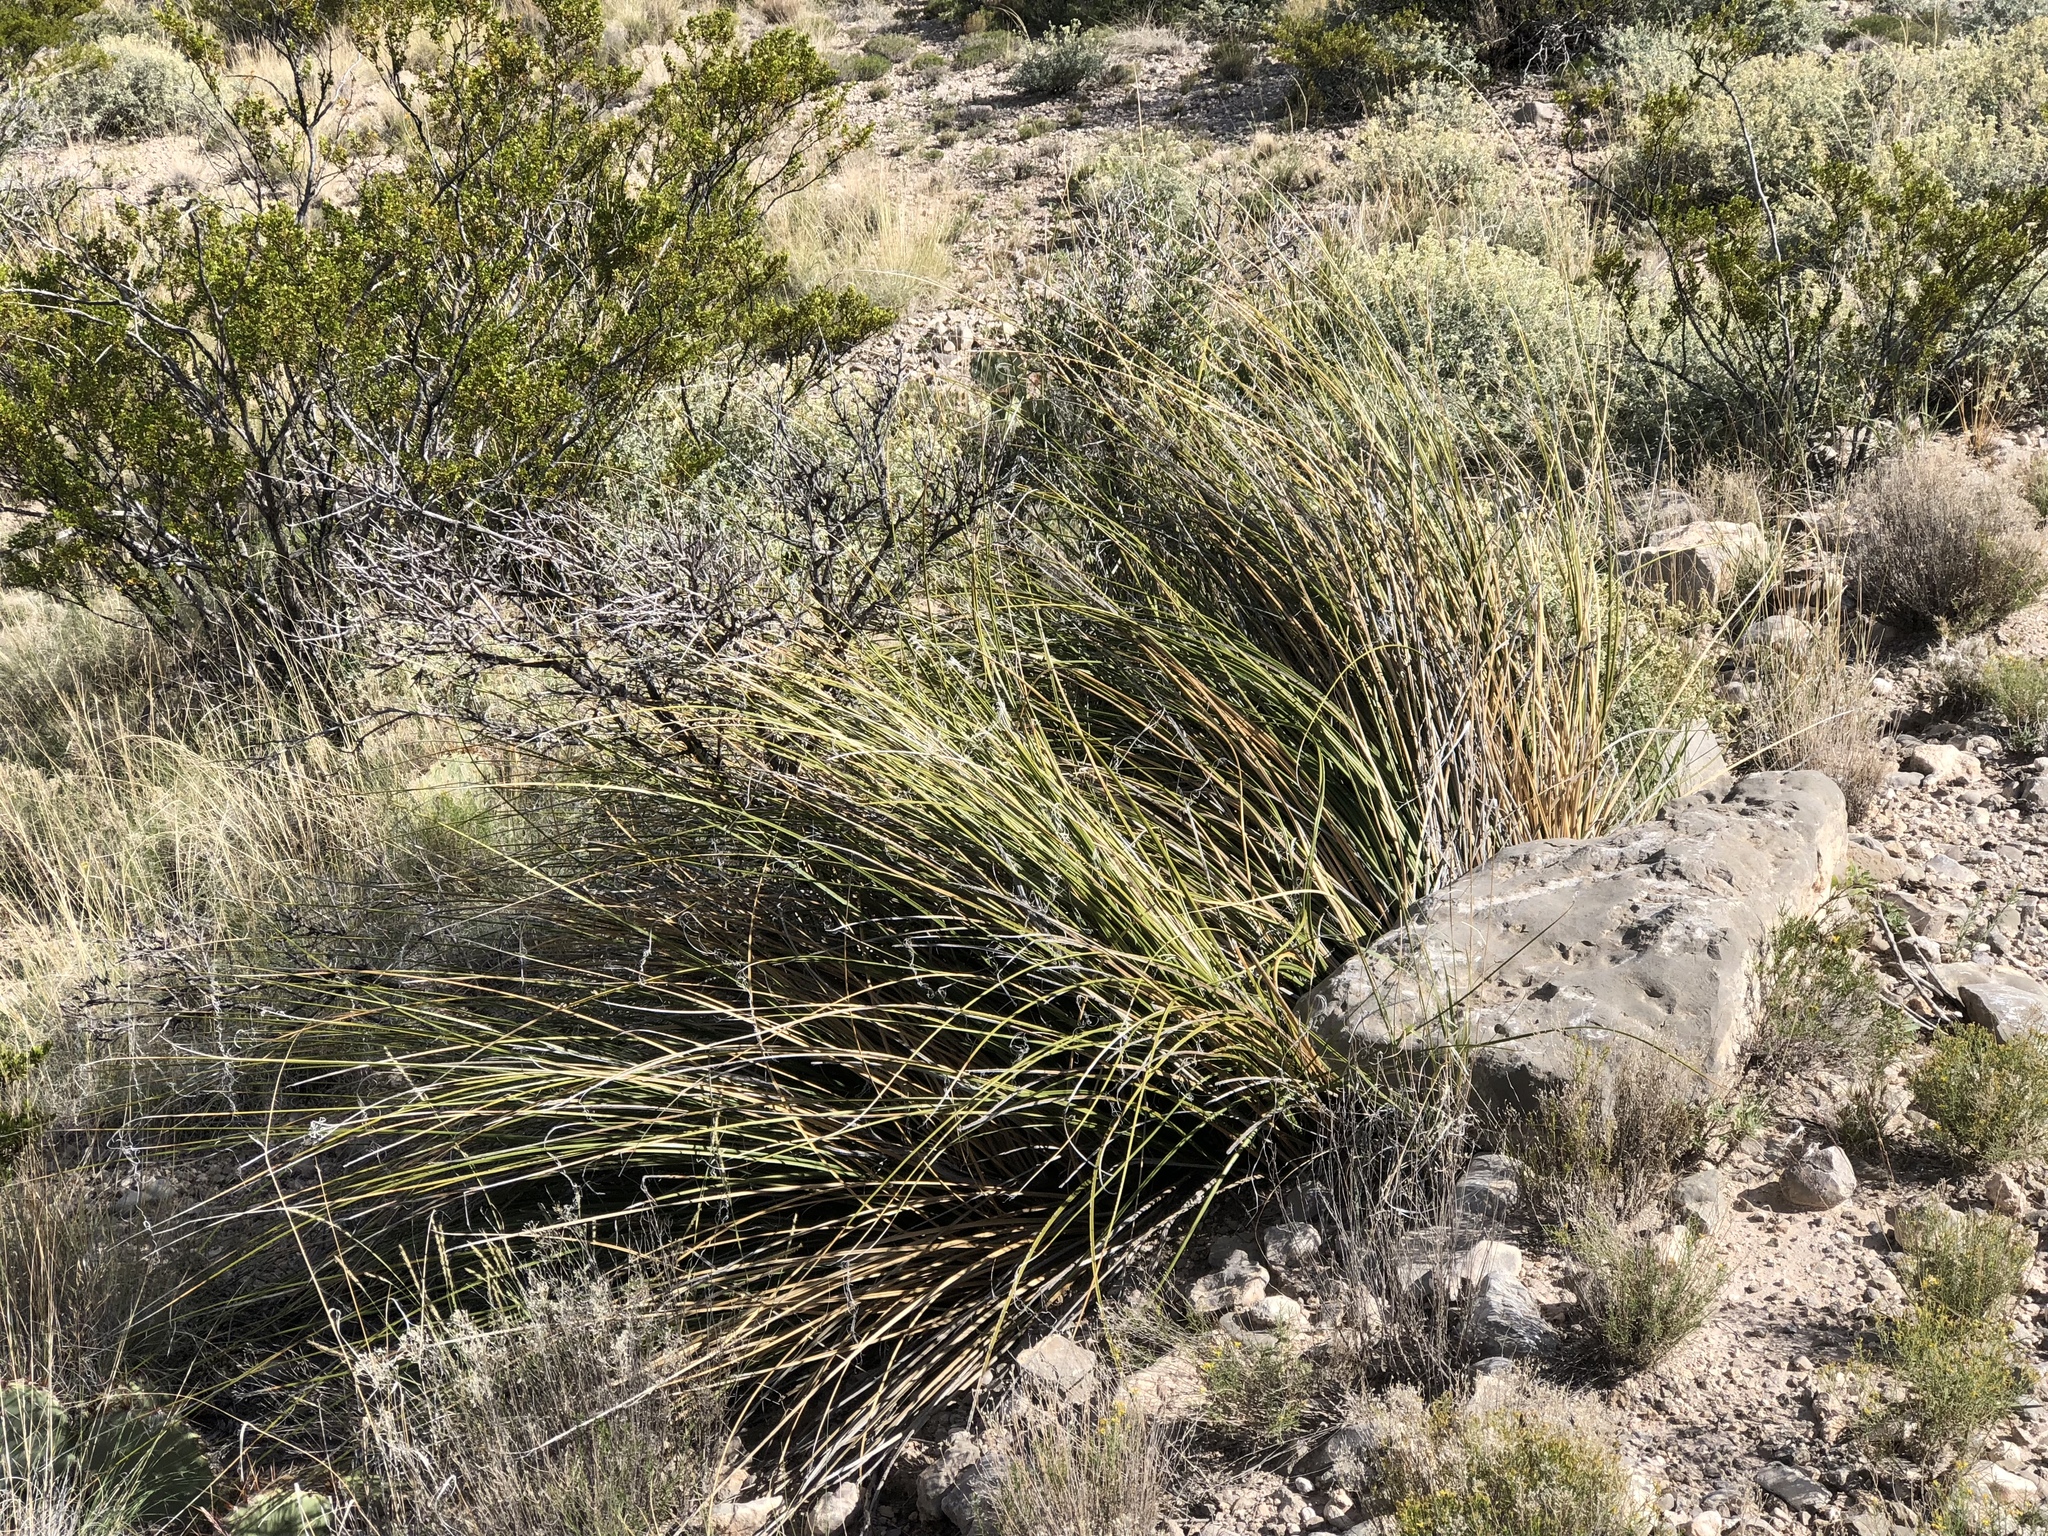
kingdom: Plantae
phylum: Tracheophyta
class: Liliopsida
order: Asparagales
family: Asparagaceae
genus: Nolina
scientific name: Nolina microcarpa
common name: Bear-grass
